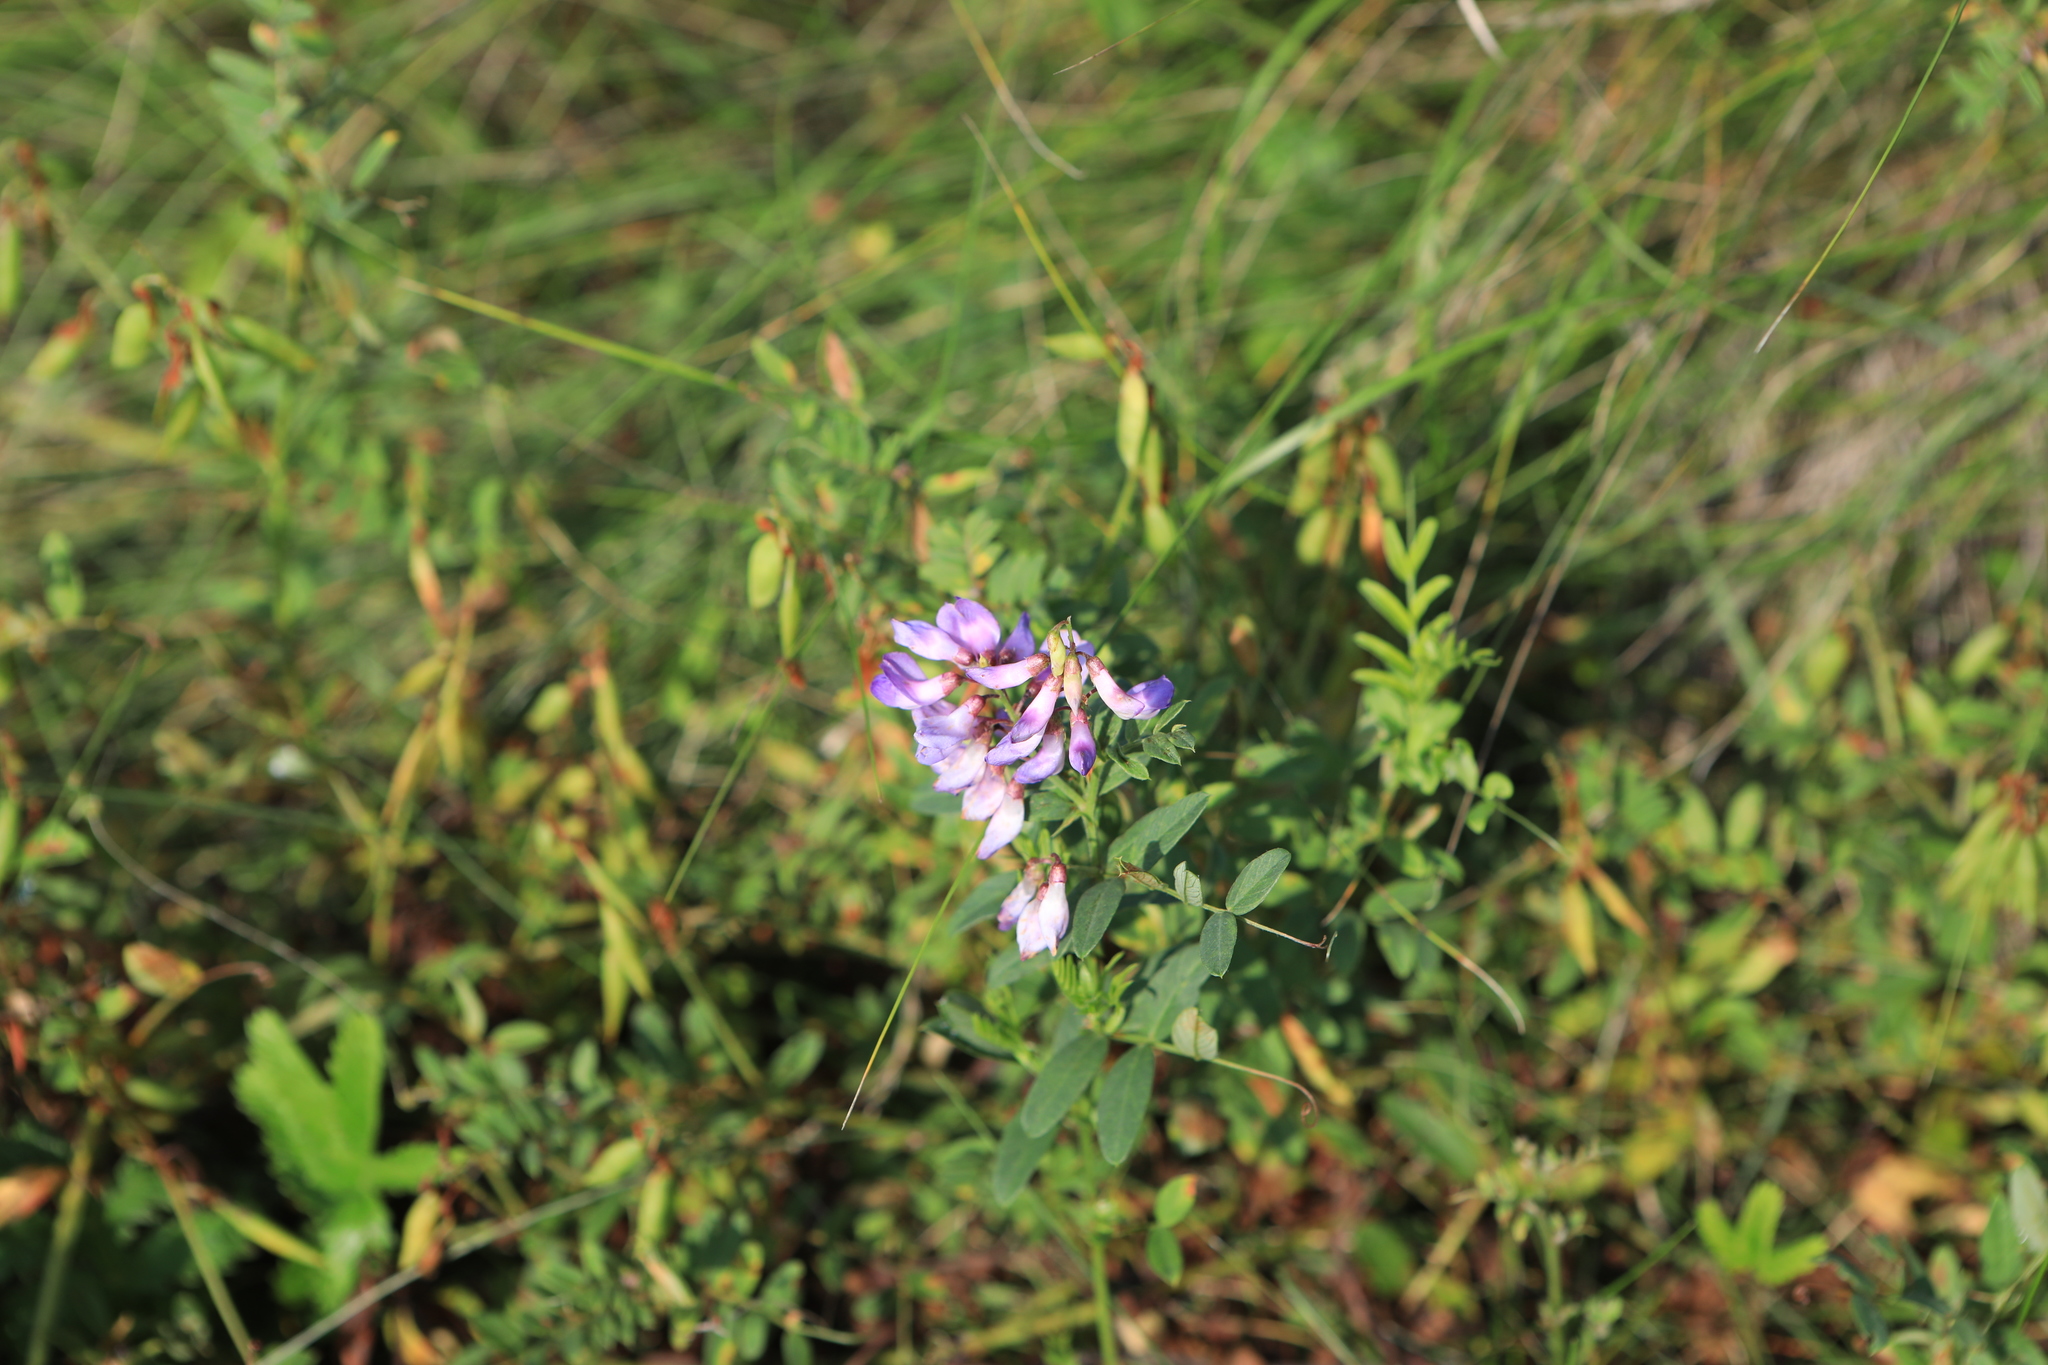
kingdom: Plantae
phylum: Tracheophyta
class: Magnoliopsida
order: Fabales
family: Fabaceae
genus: Vicia
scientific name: Vicia amoena
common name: Cheder ebs
